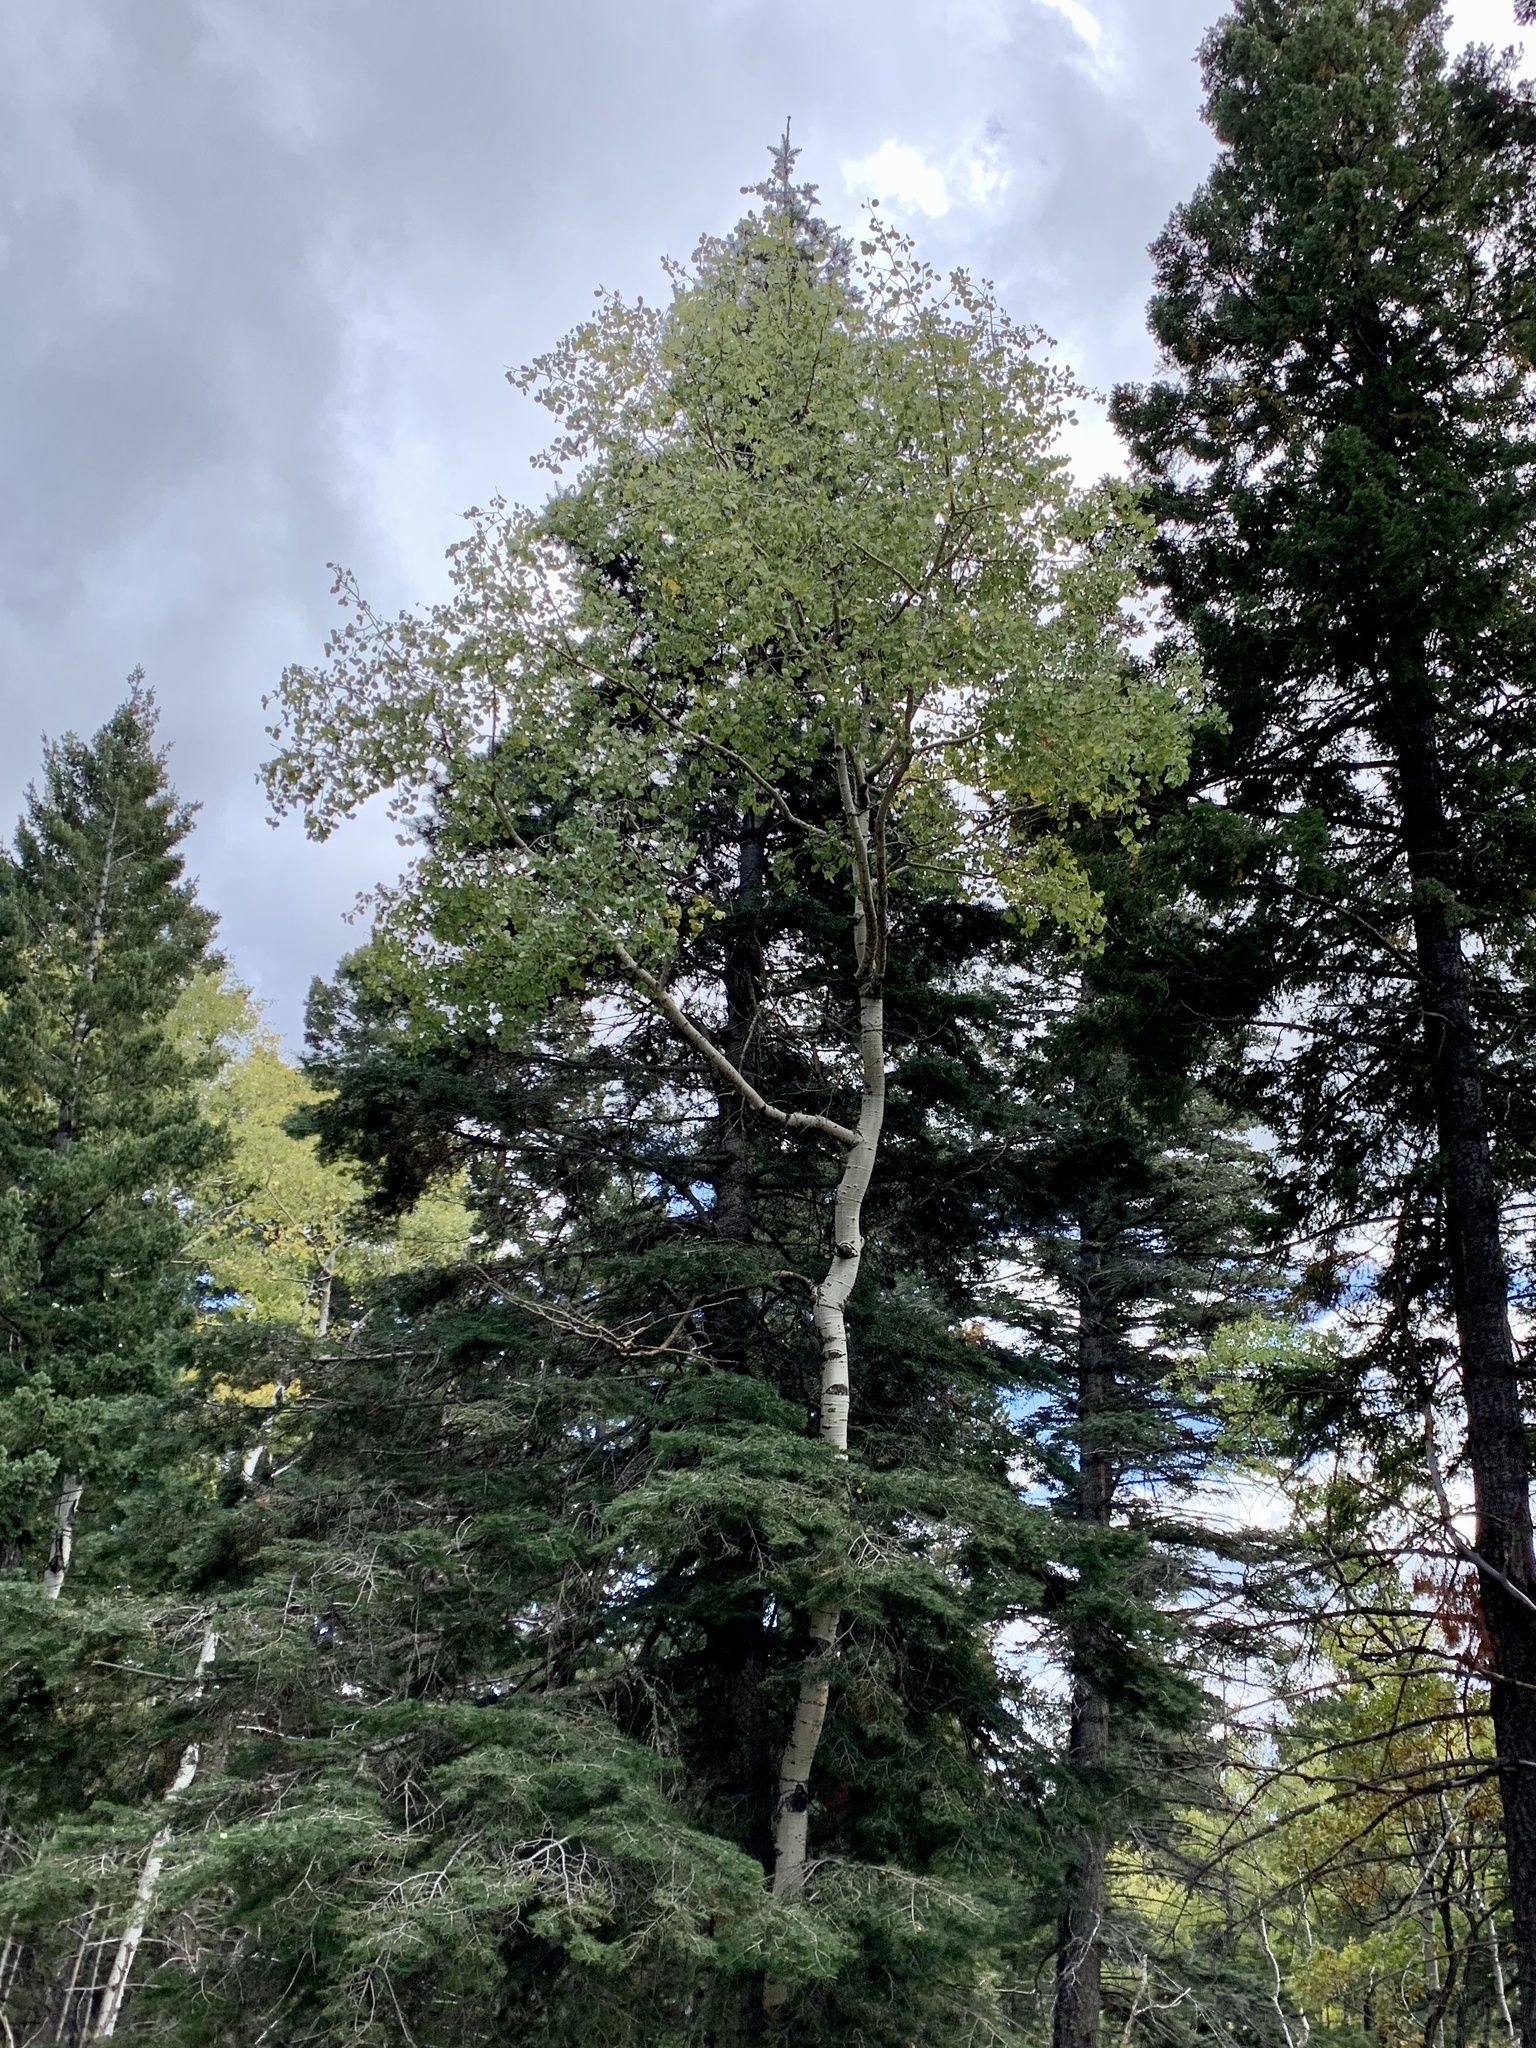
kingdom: Plantae
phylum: Tracheophyta
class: Magnoliopsida
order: Malpighiales
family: Salicaceae
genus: Populus
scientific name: Populus tremuloides
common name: Quaking aspen
